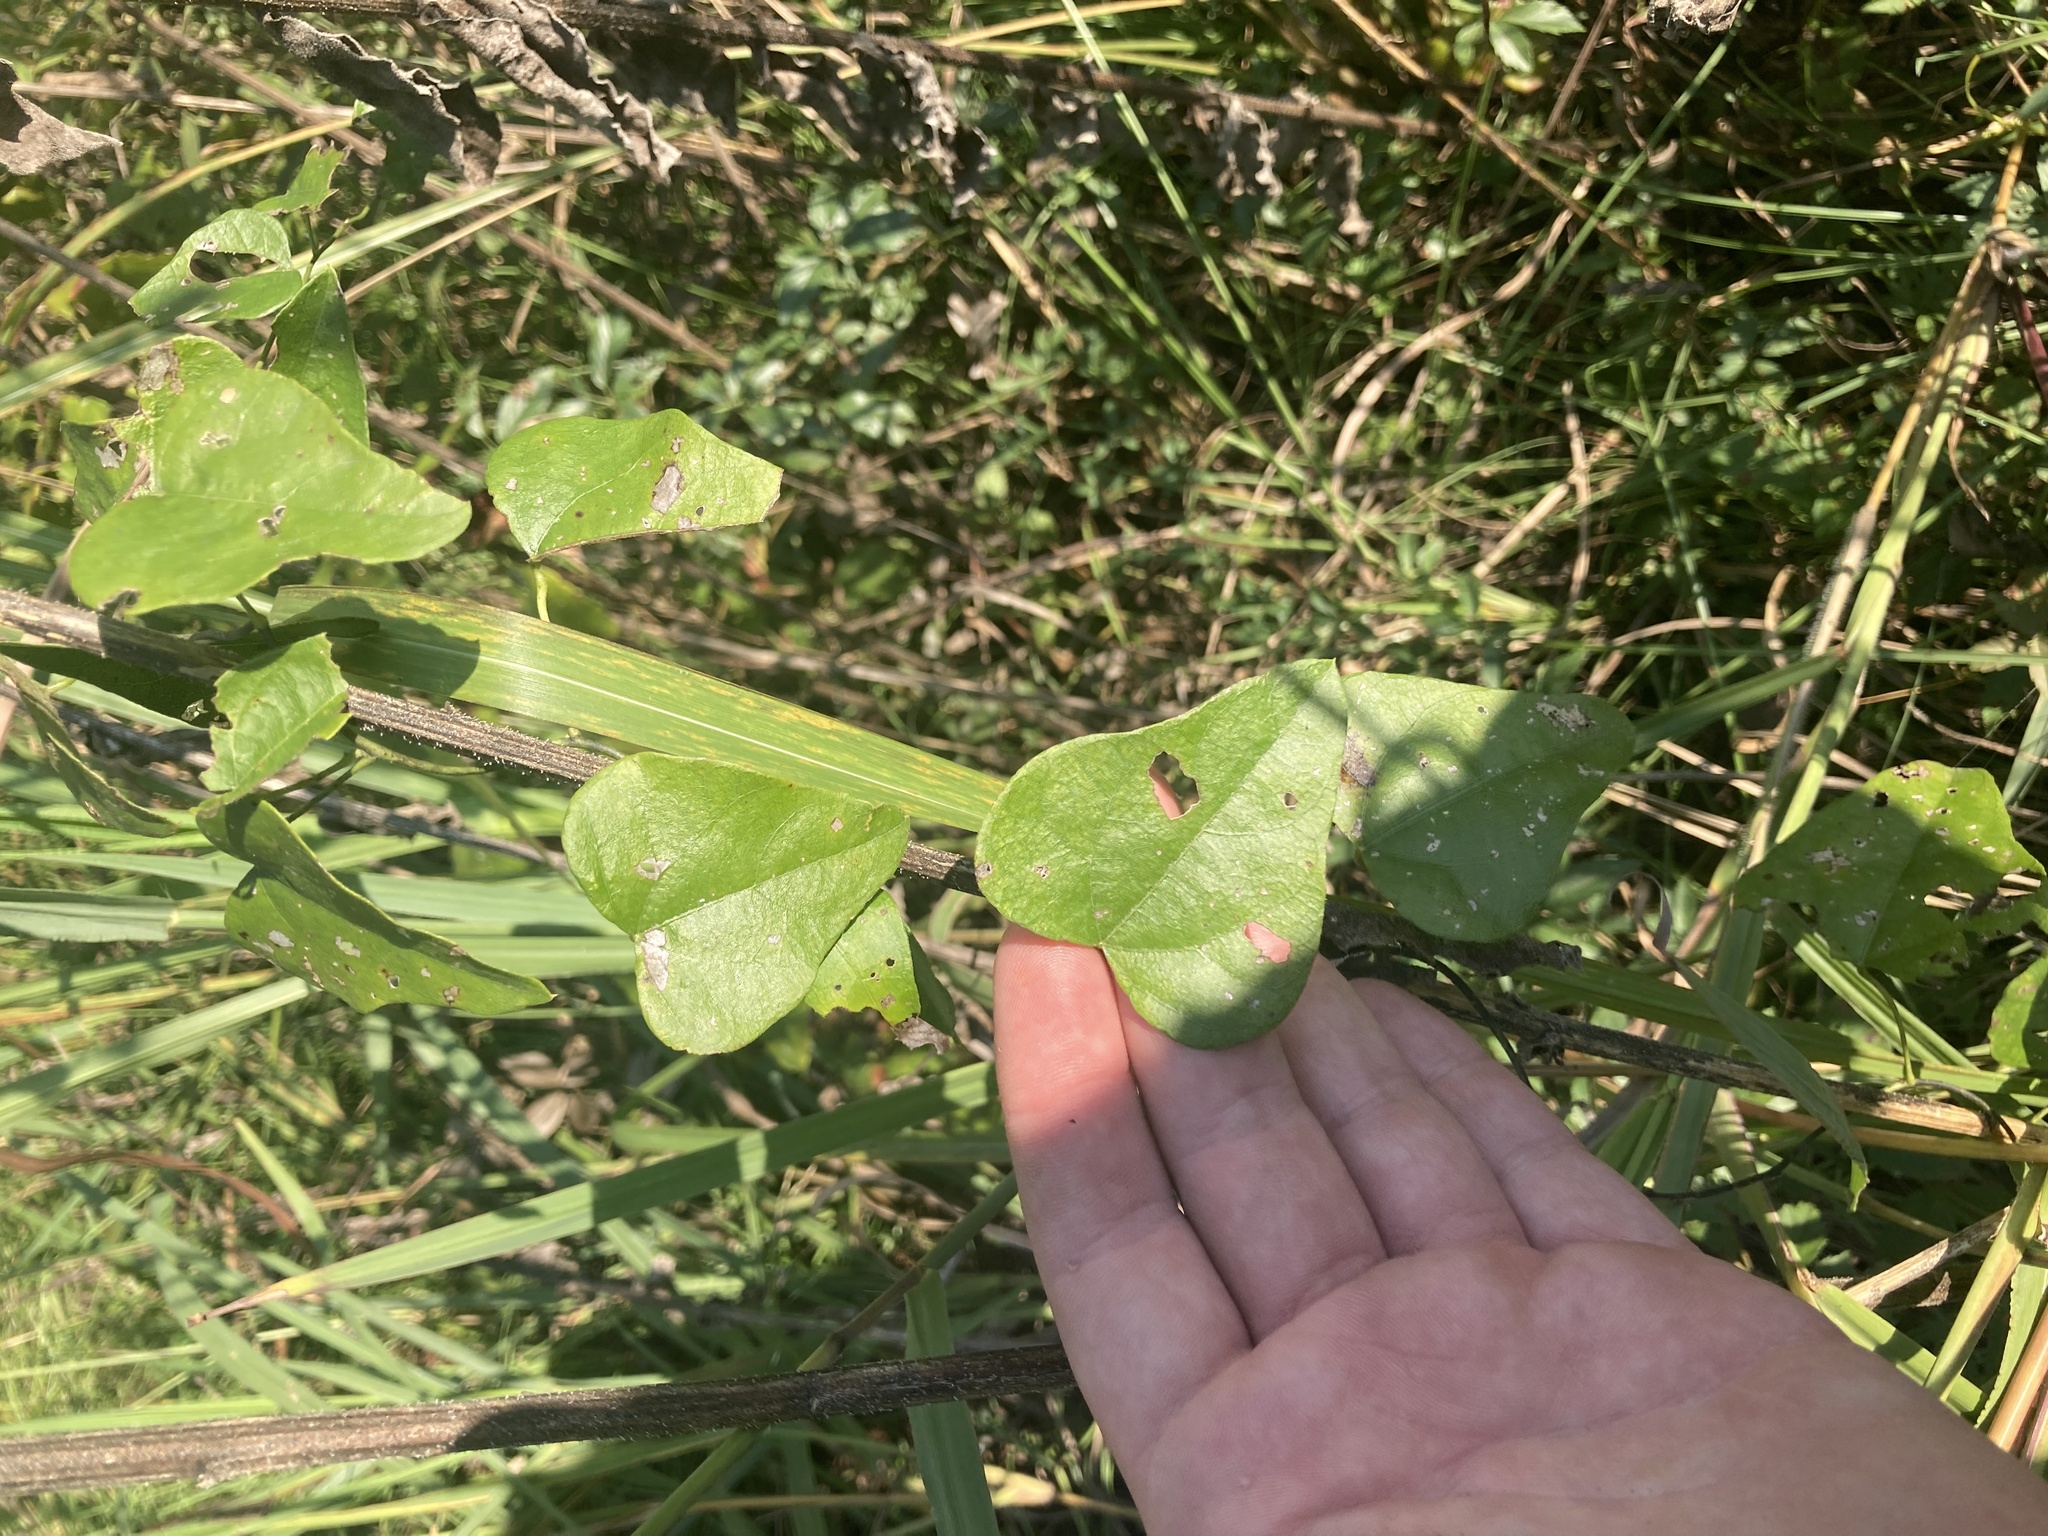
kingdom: Plantae
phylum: Tracheophyta
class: Magnoliopsida
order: Ranunculales
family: Menispermaceae
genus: Cocculus
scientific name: Cocculus carolinus
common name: Carolina moonseed
